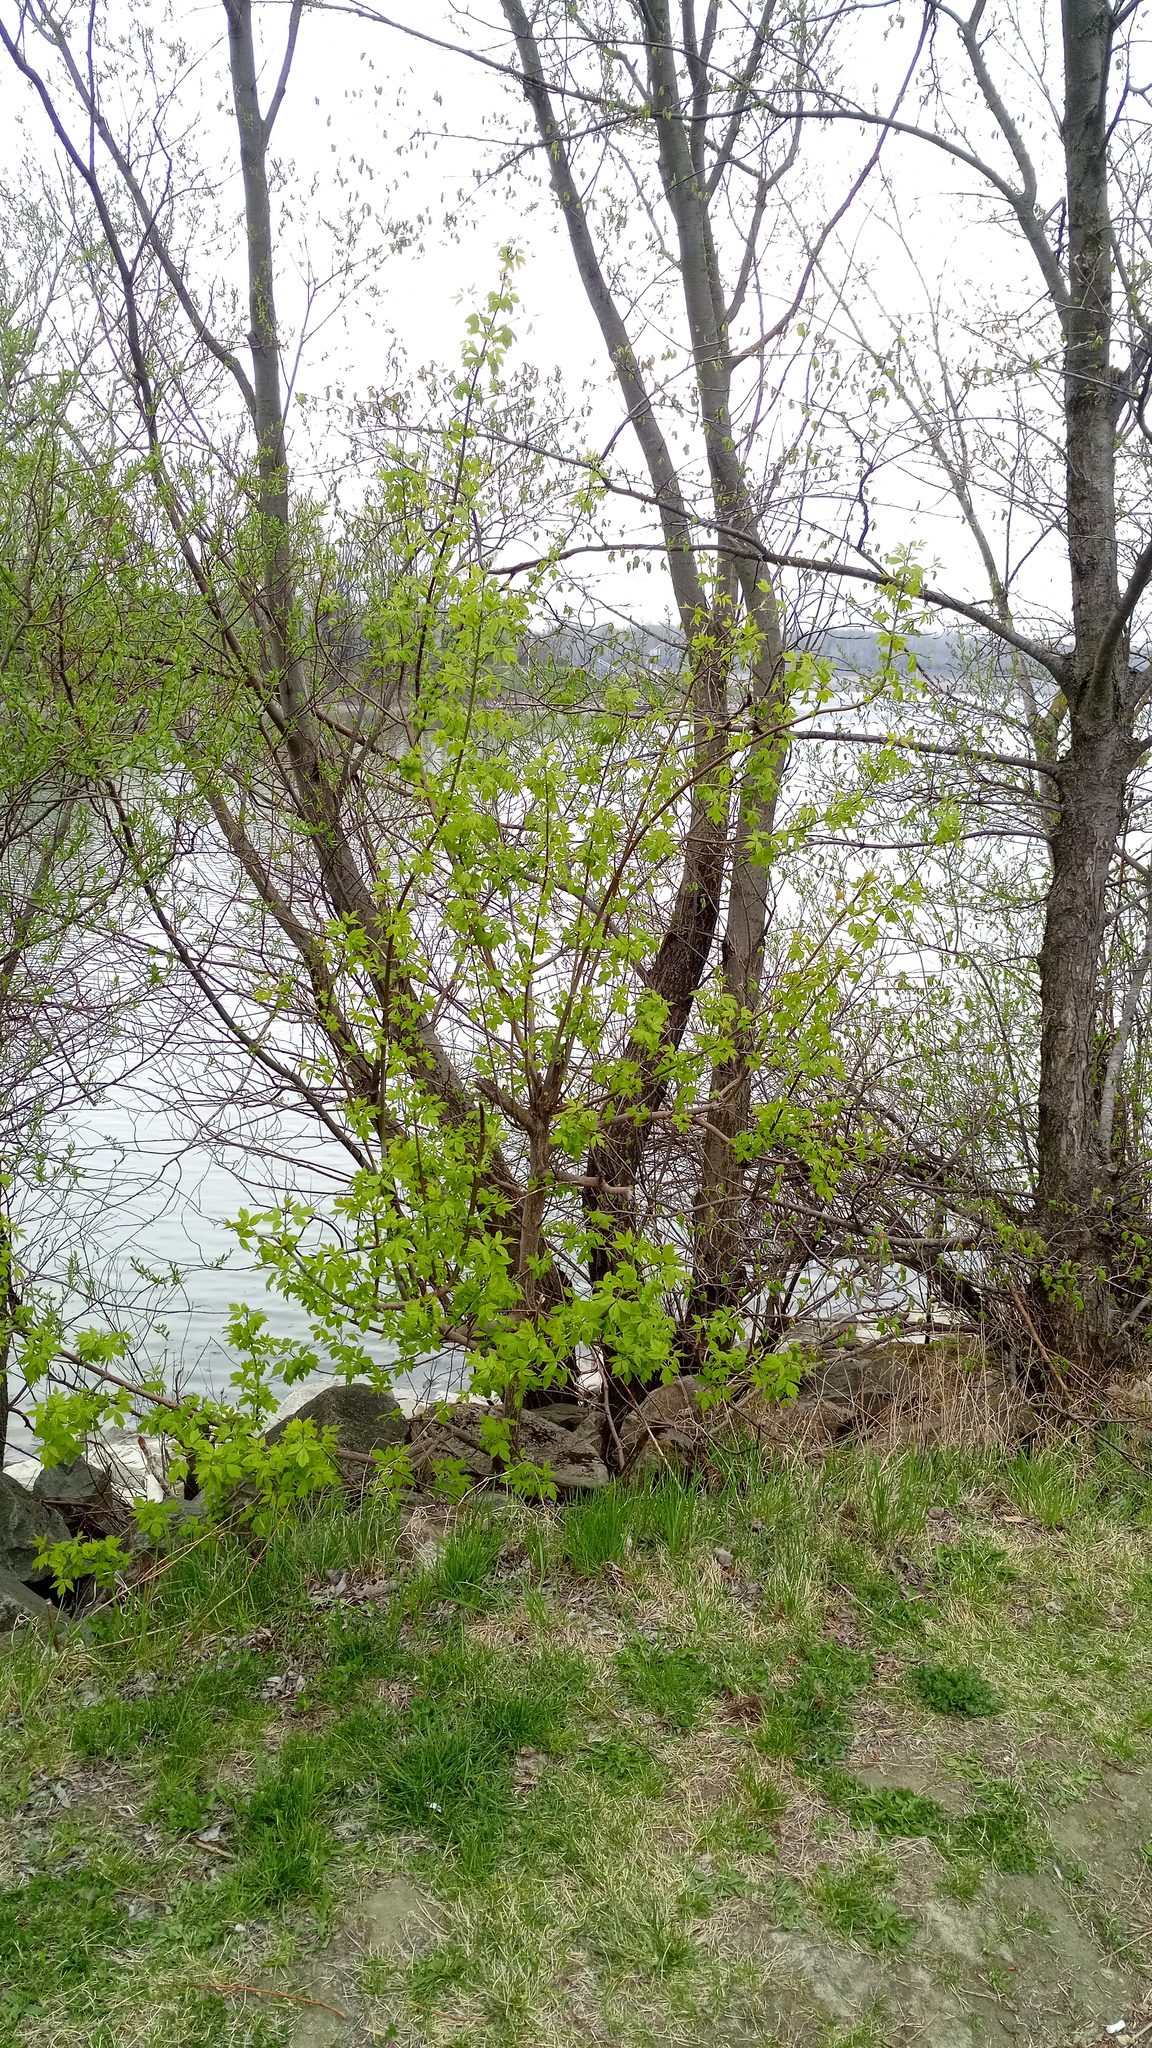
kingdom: Plantae
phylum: Tracheophyta
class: Magnoliopsida
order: Sapindales
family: Sapindaceae
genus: Acer
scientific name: Acer negundo
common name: Ashleaf maple
